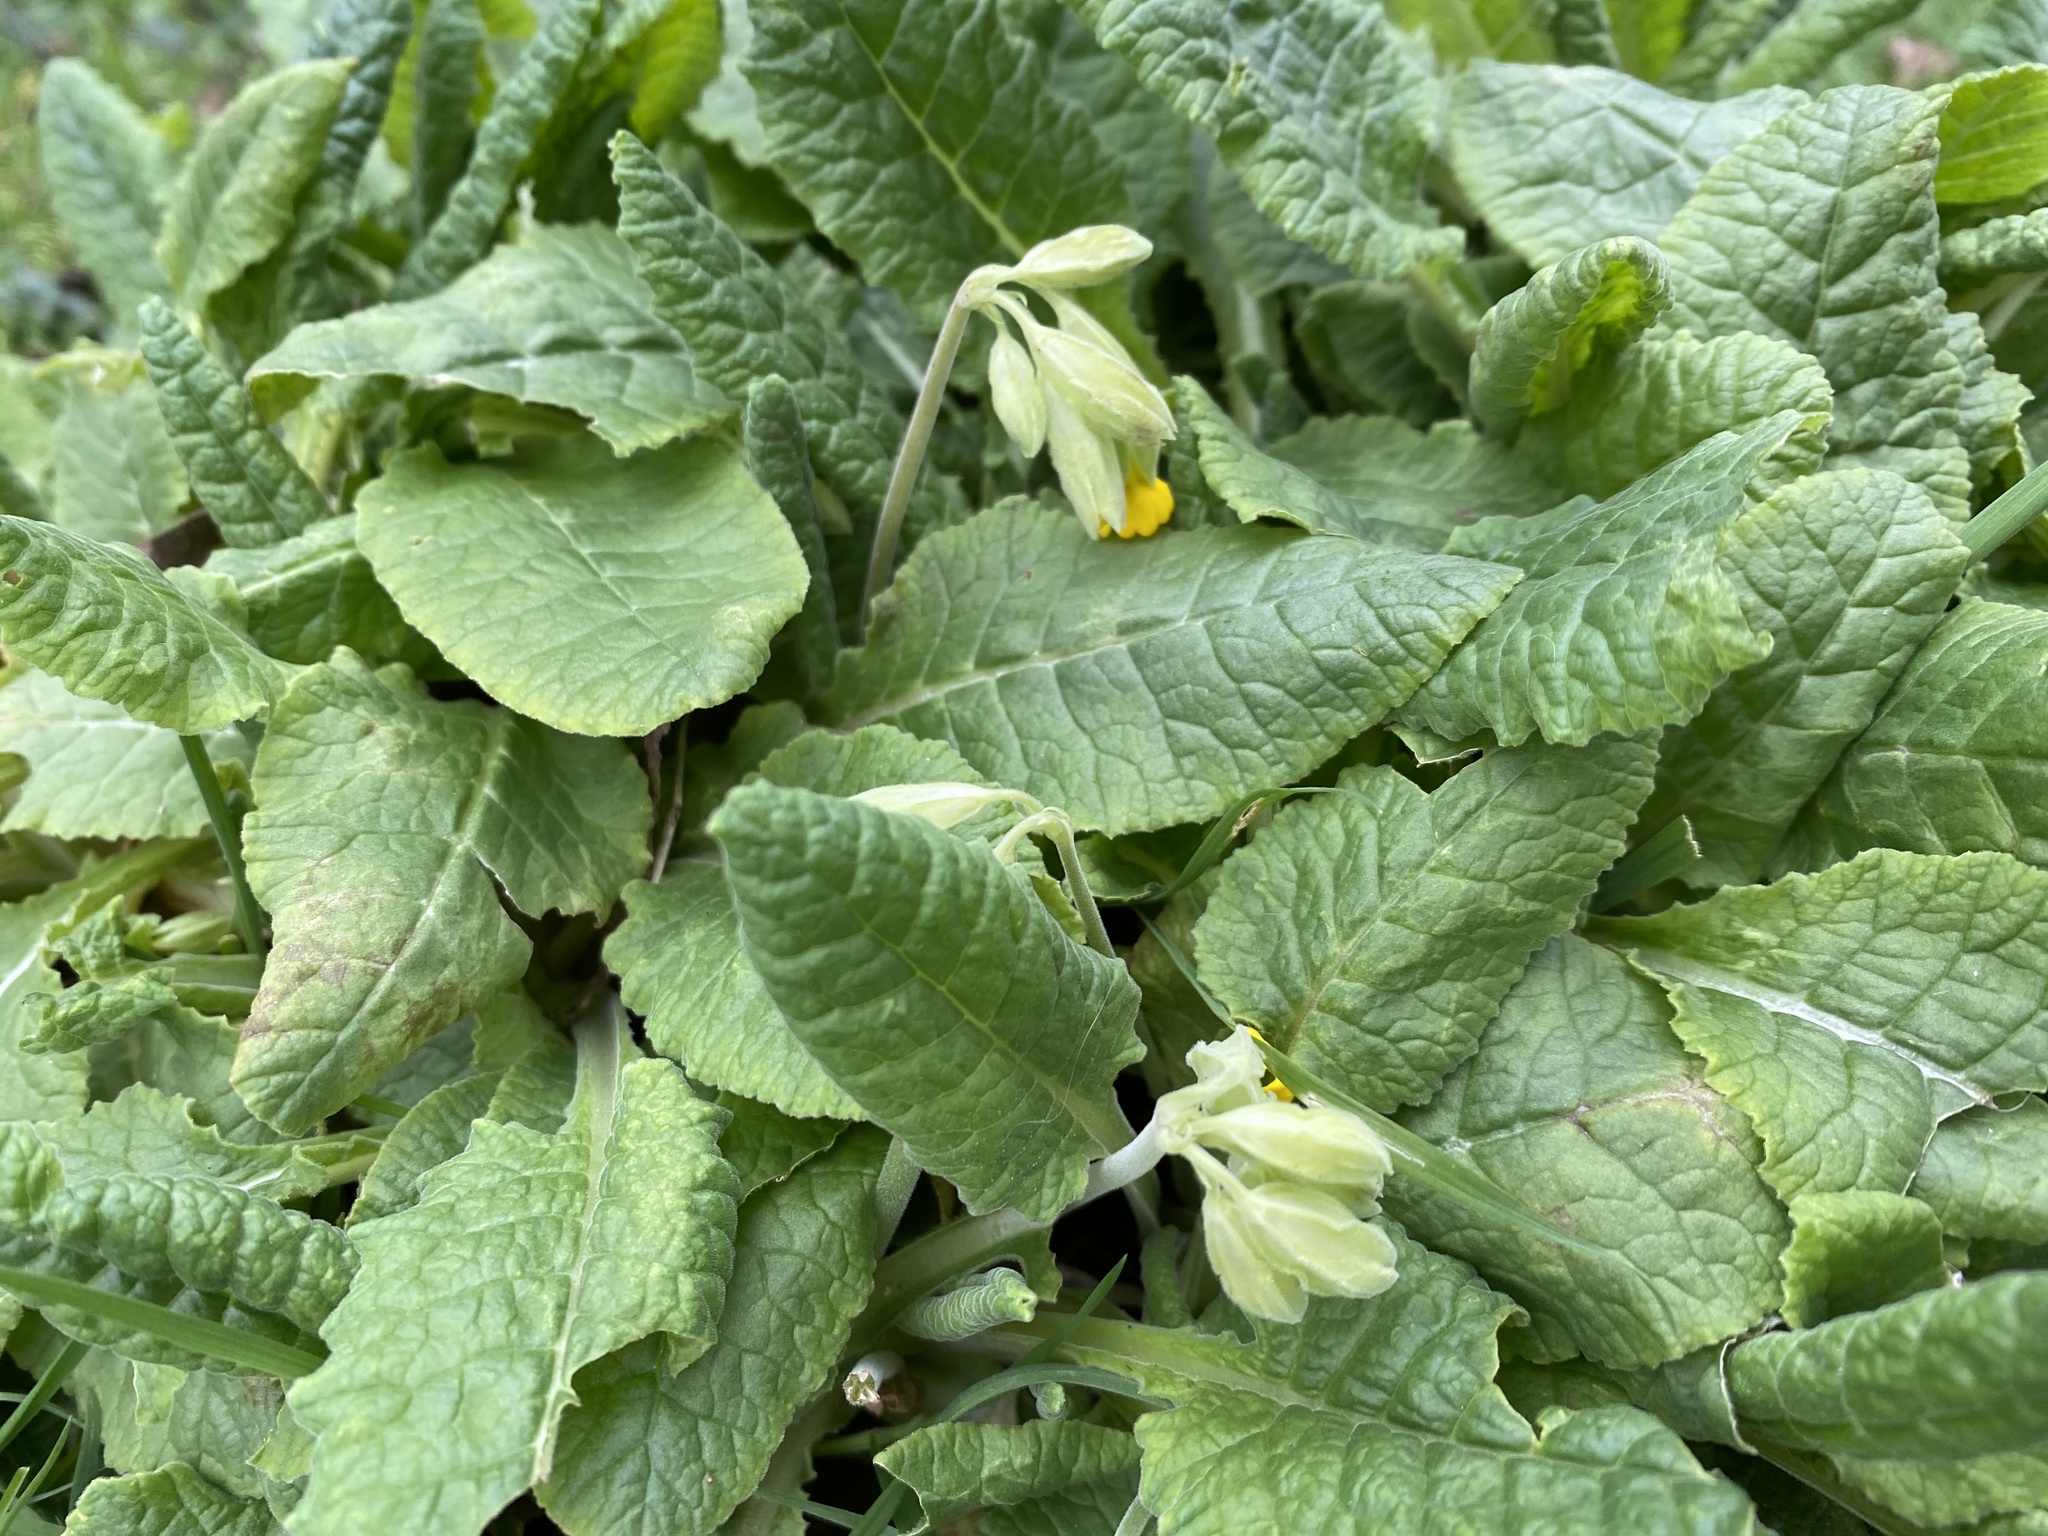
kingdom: Plantae
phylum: Tracheophyta
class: Magnoliopsida
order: Ericales
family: Primulaceae
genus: Primula
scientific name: Primula veris
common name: Cowslip
